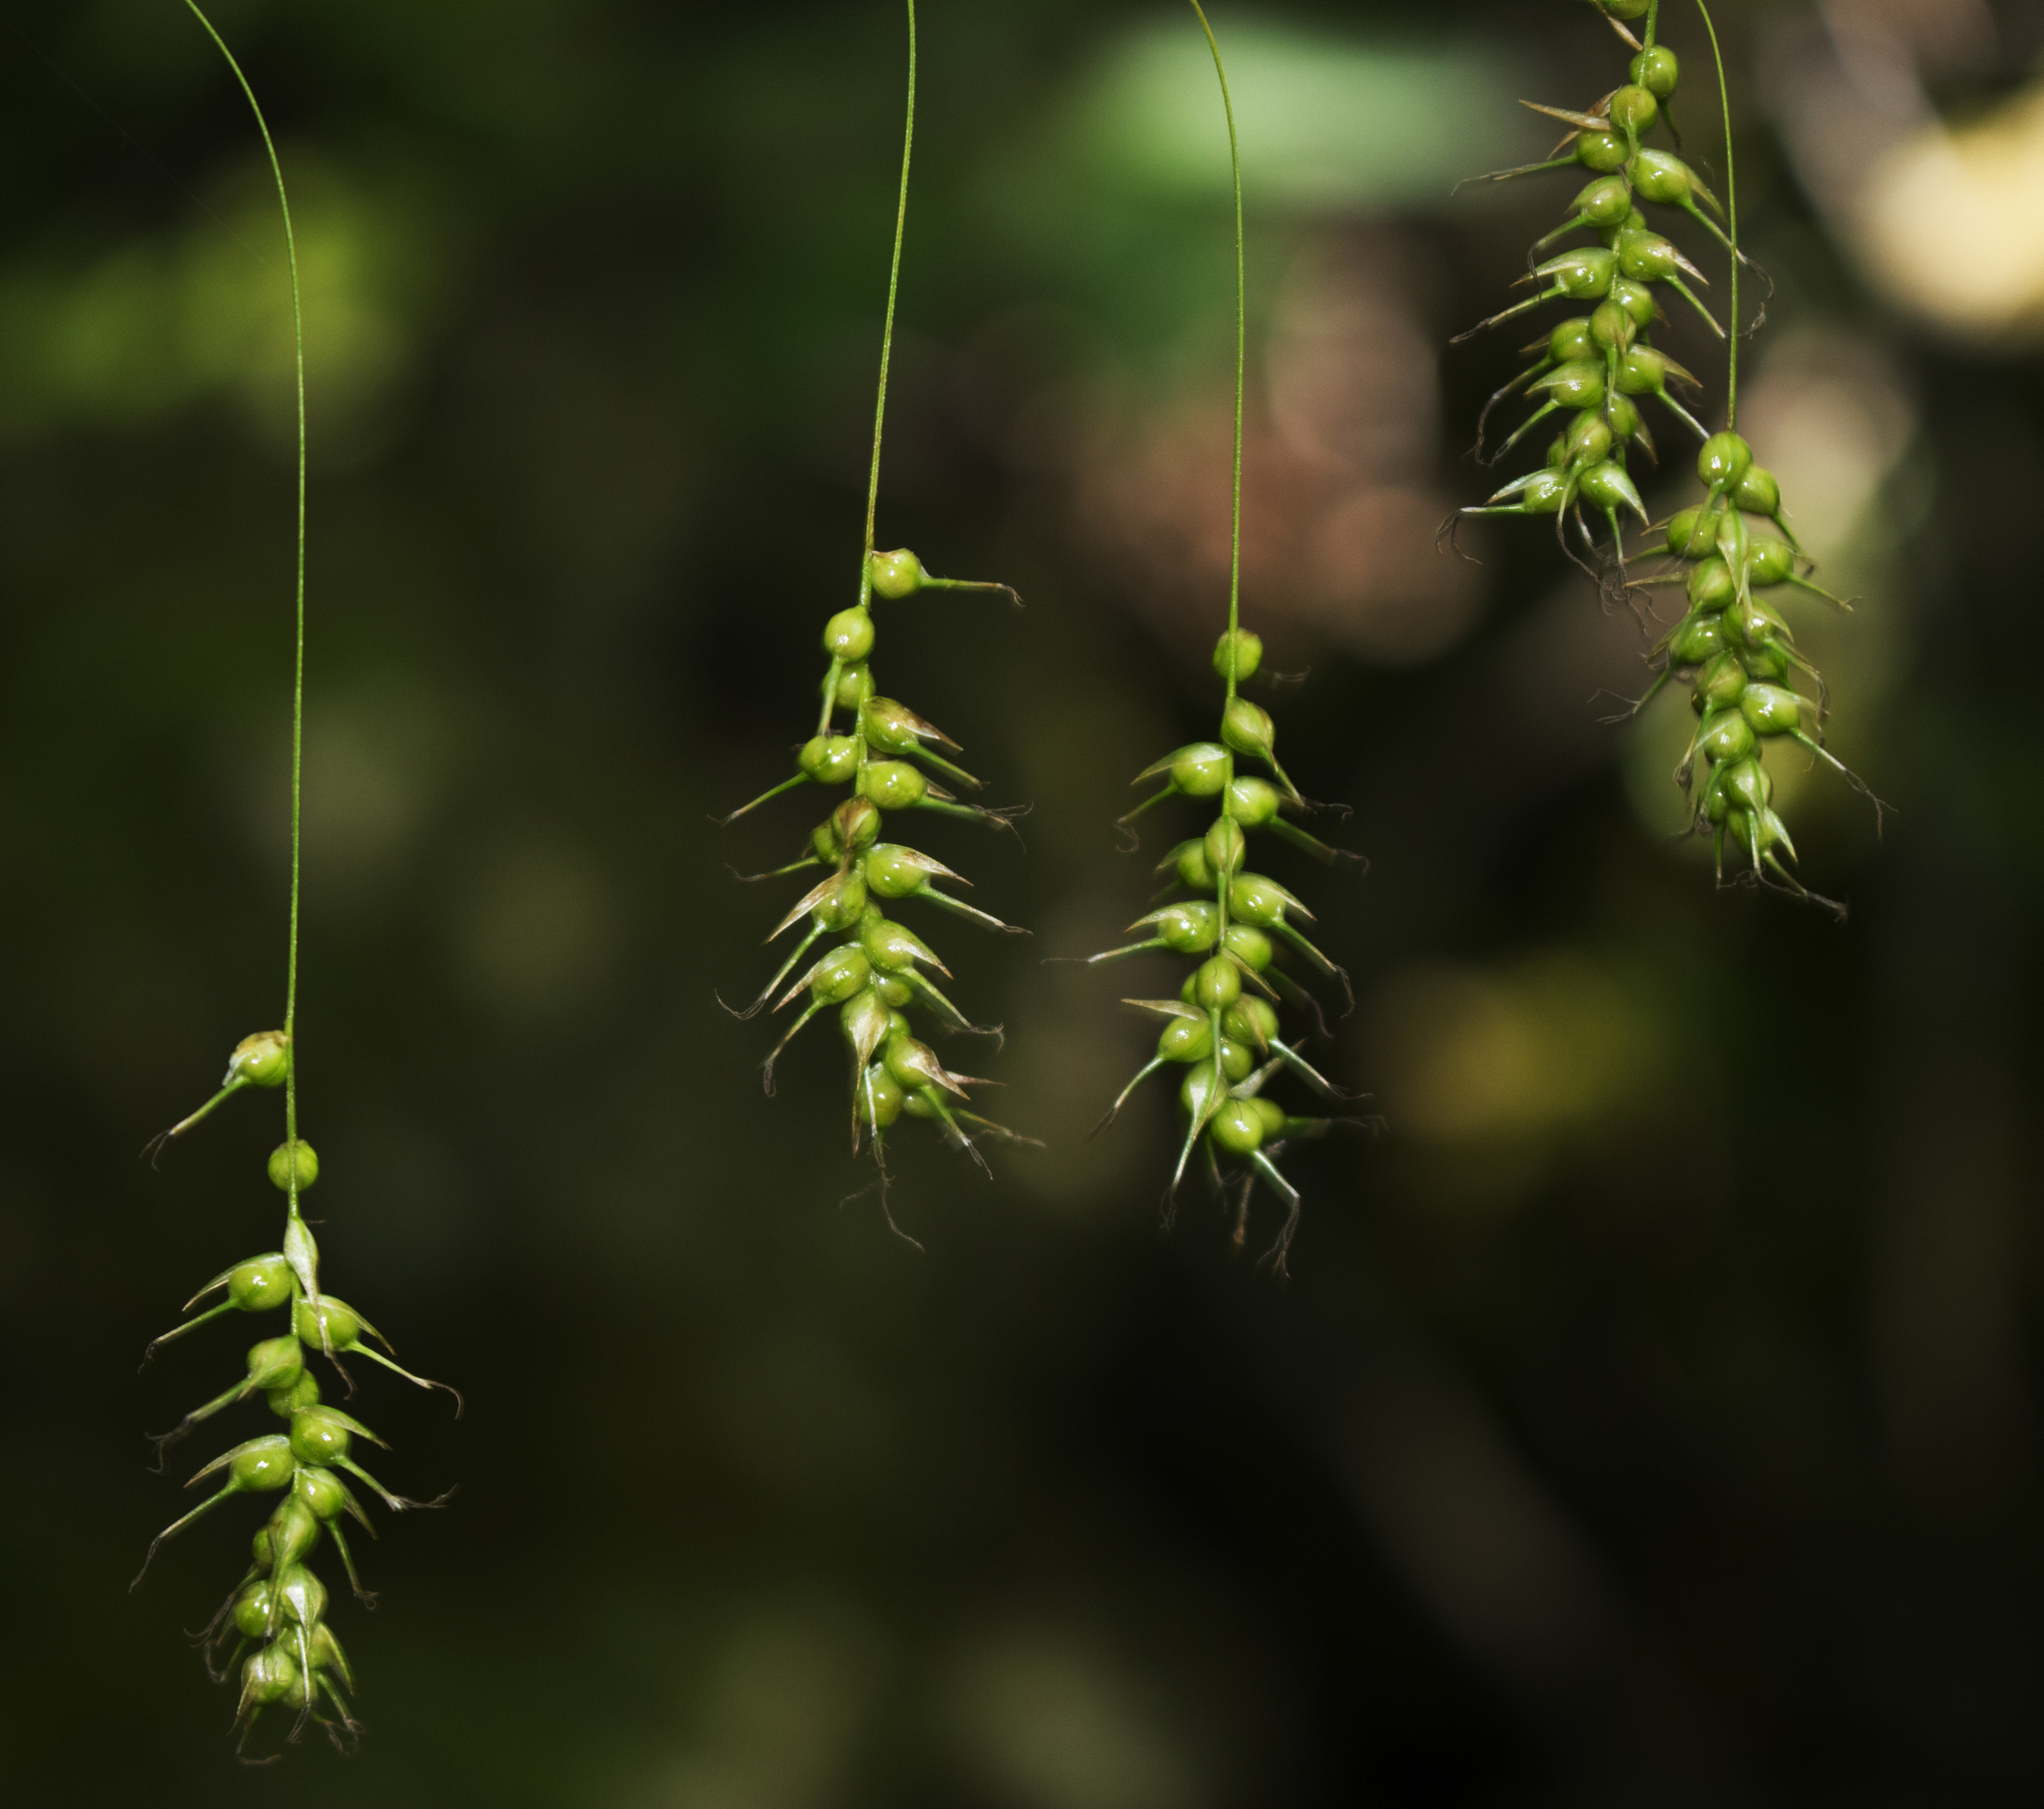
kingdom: Plantae
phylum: Tracheophyta
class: Liliopsida
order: Poales
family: Cyperaceae
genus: Carex
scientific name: Carex sprengelii
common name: Long-beaked sedge
